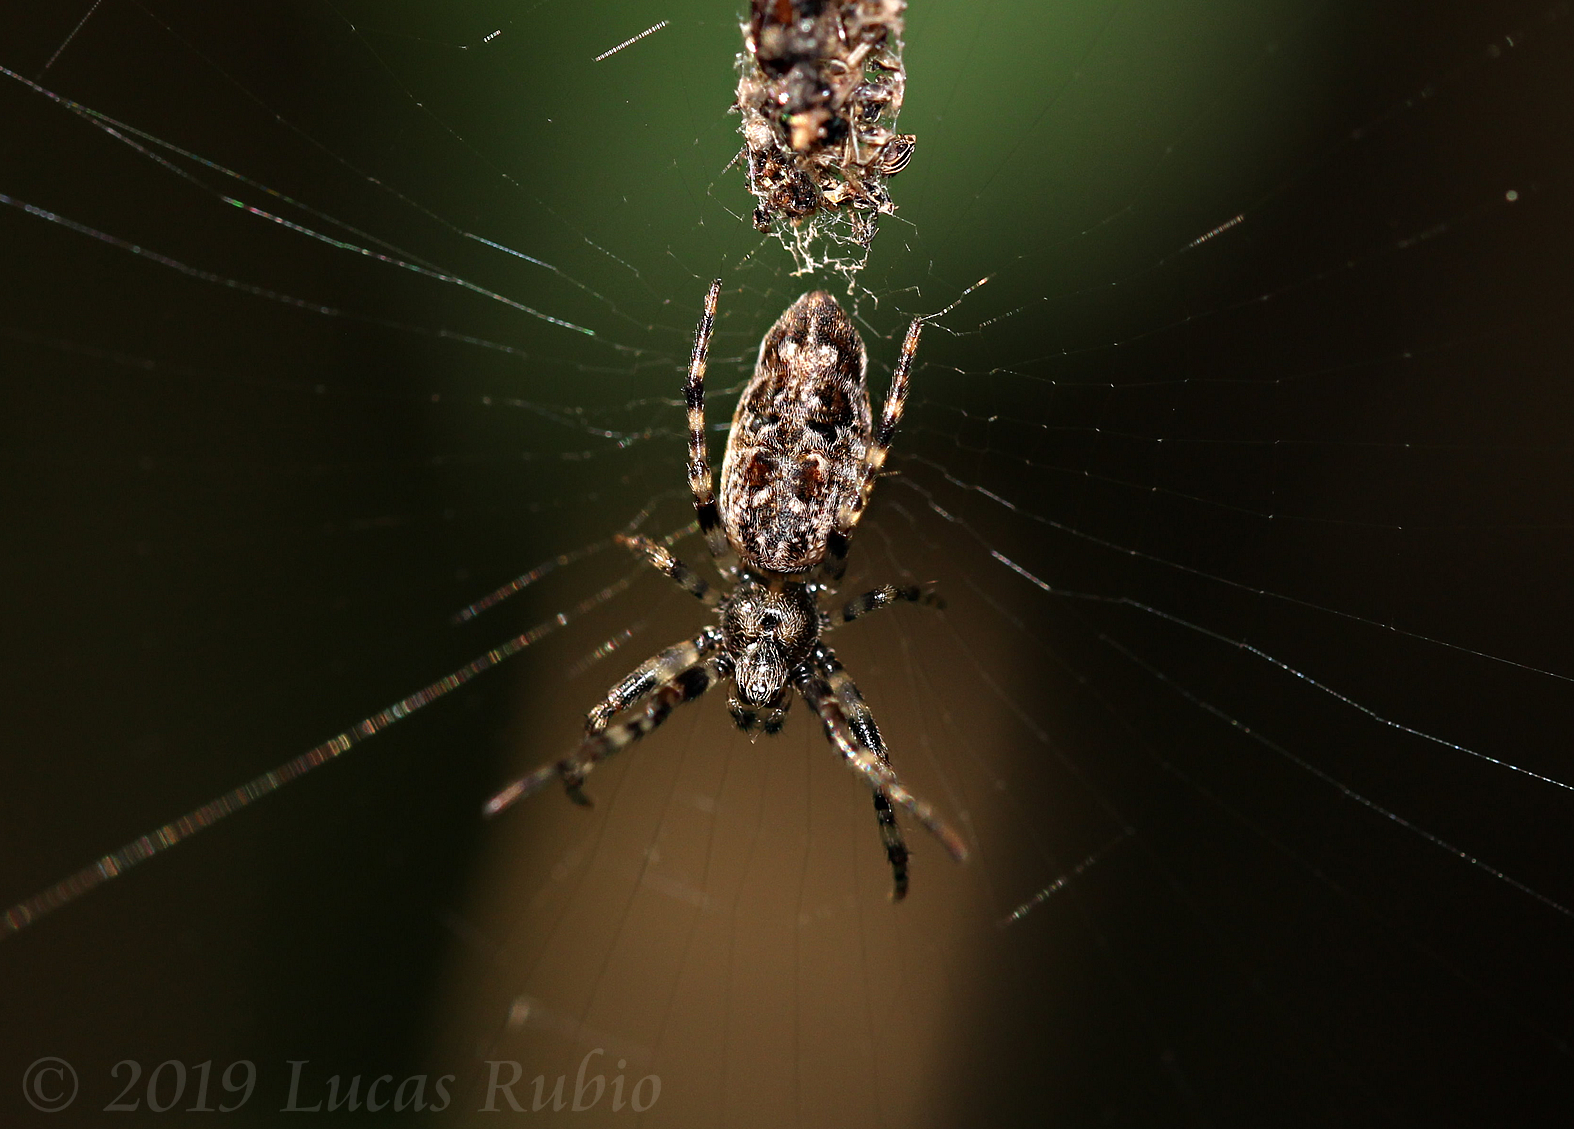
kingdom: Animalia
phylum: Arthropoda
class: Arachnida
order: Araneae
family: Araneidae
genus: Cyclosa
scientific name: Cyclosa machadinho
